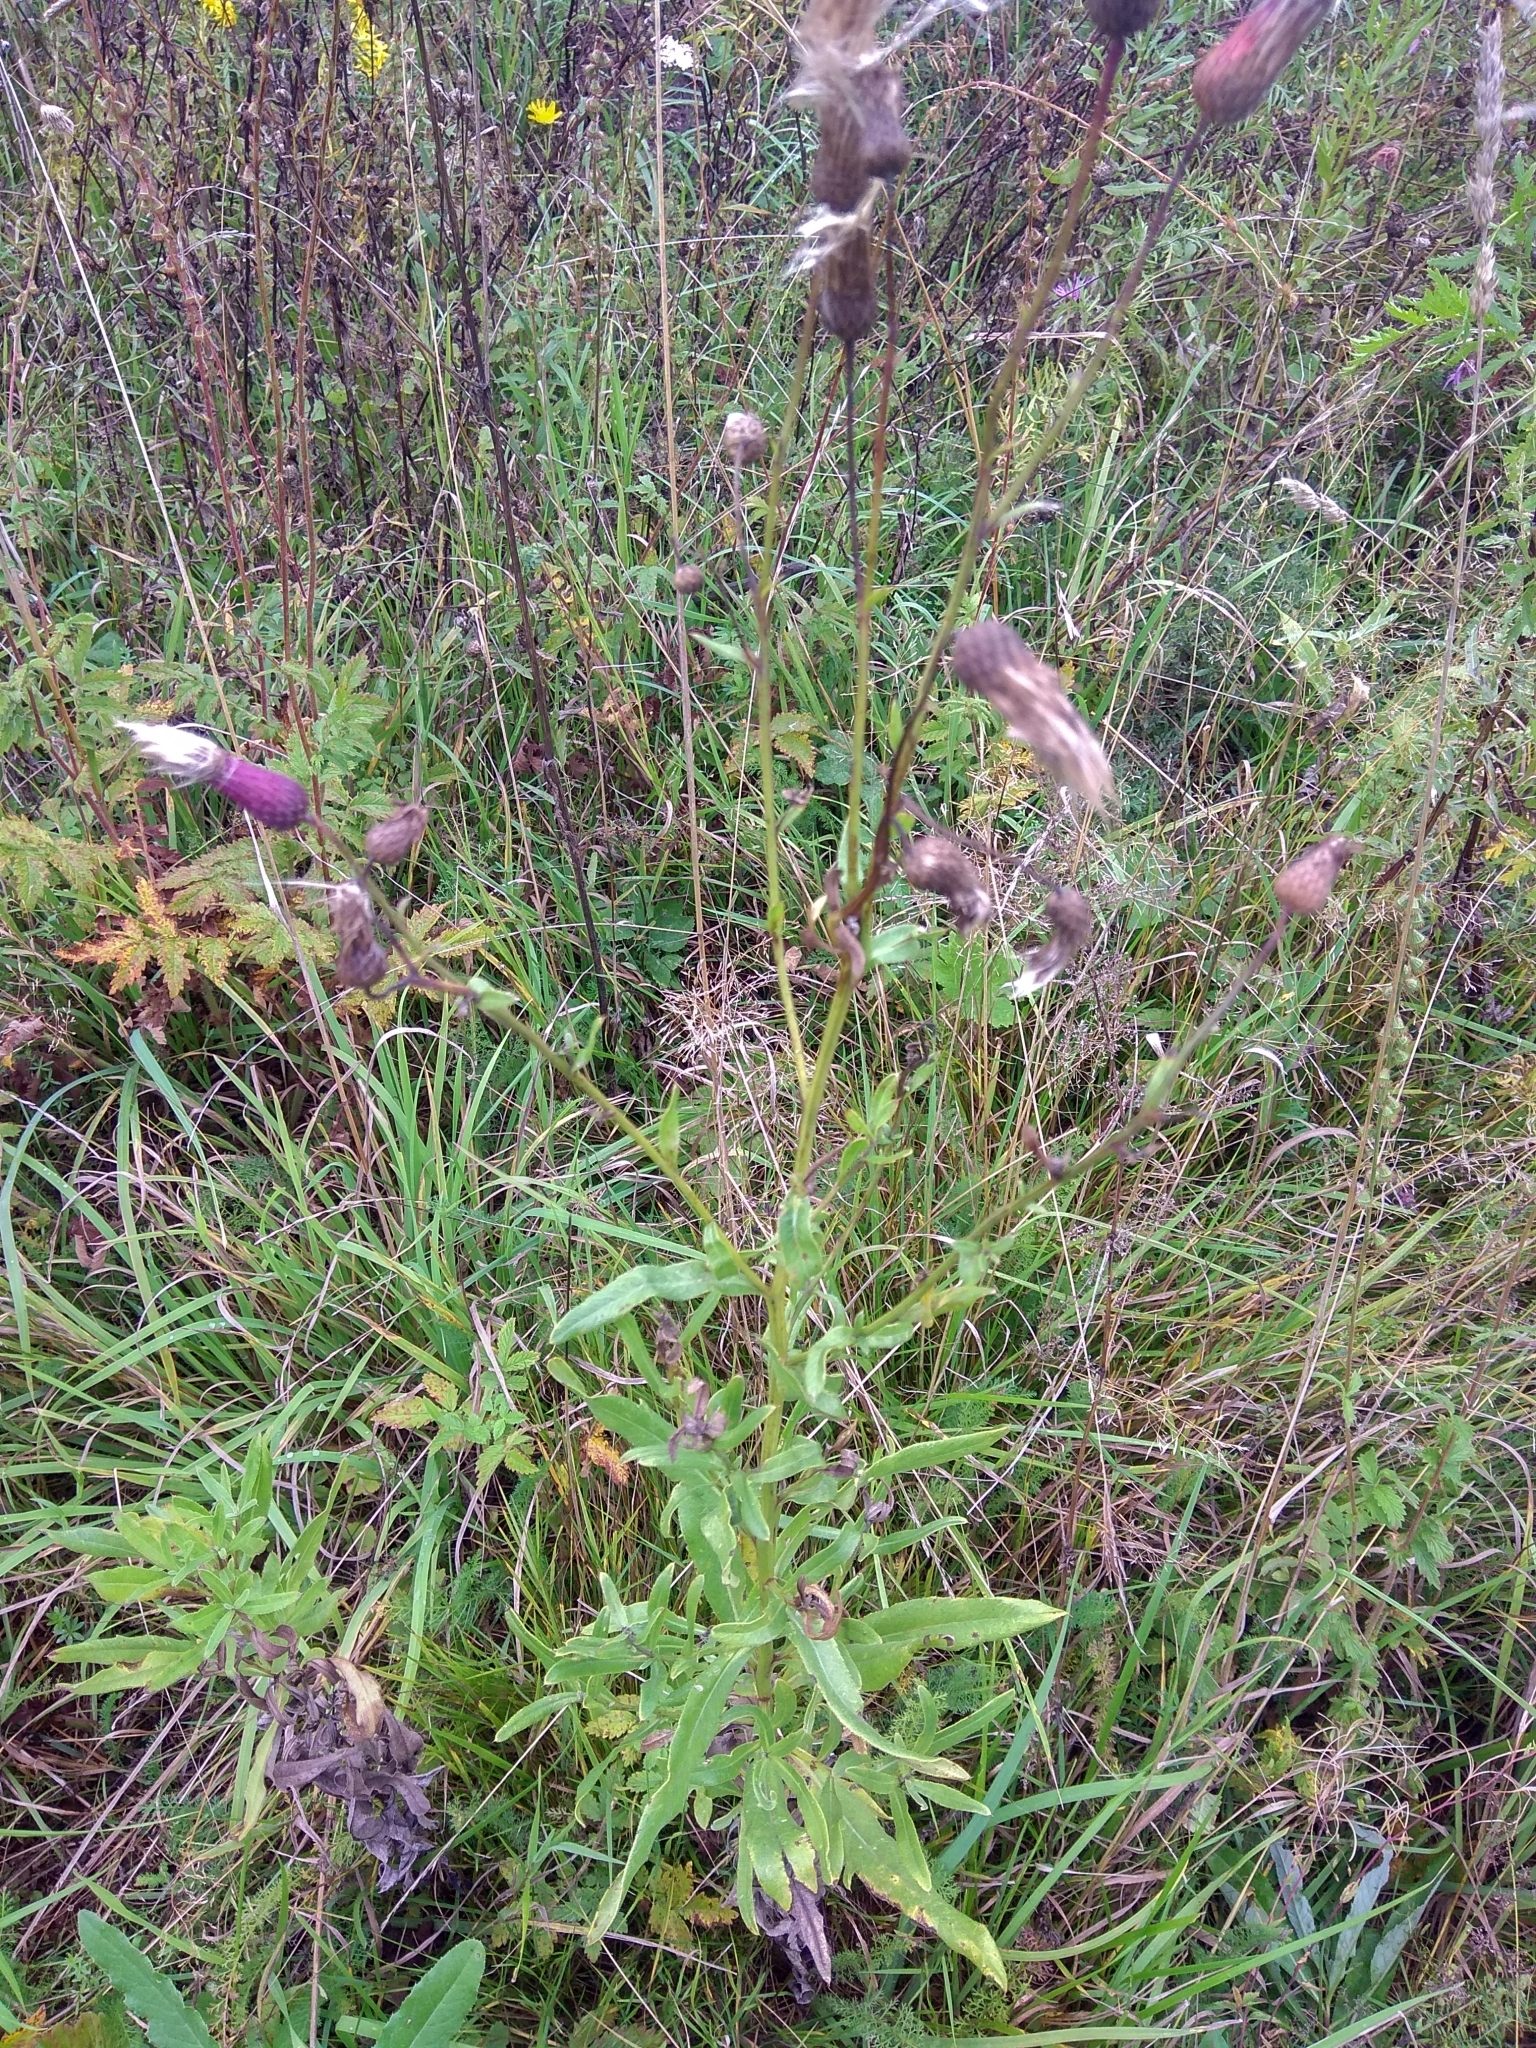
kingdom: Plantae
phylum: Tracheophyta
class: Magnoliopsida
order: Asterales
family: Asteraceae
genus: Cirsium
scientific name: Cirsium arvense
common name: Creeping thistle
